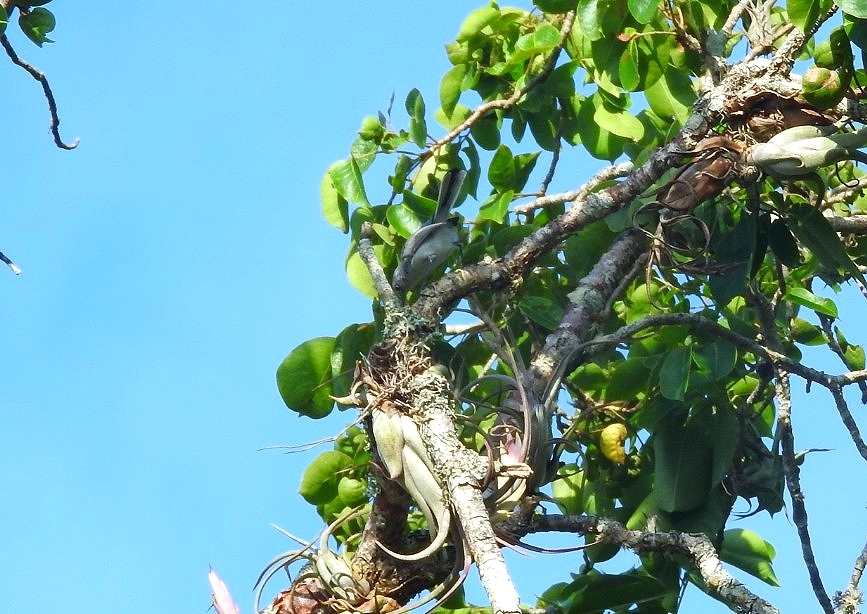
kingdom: Animalia
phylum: Chordata
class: Aves
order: Passeriformes
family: Polioptilidae
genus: Polioptila
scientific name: Polioptila caerulea
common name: Blue-gray gnatcatcher
